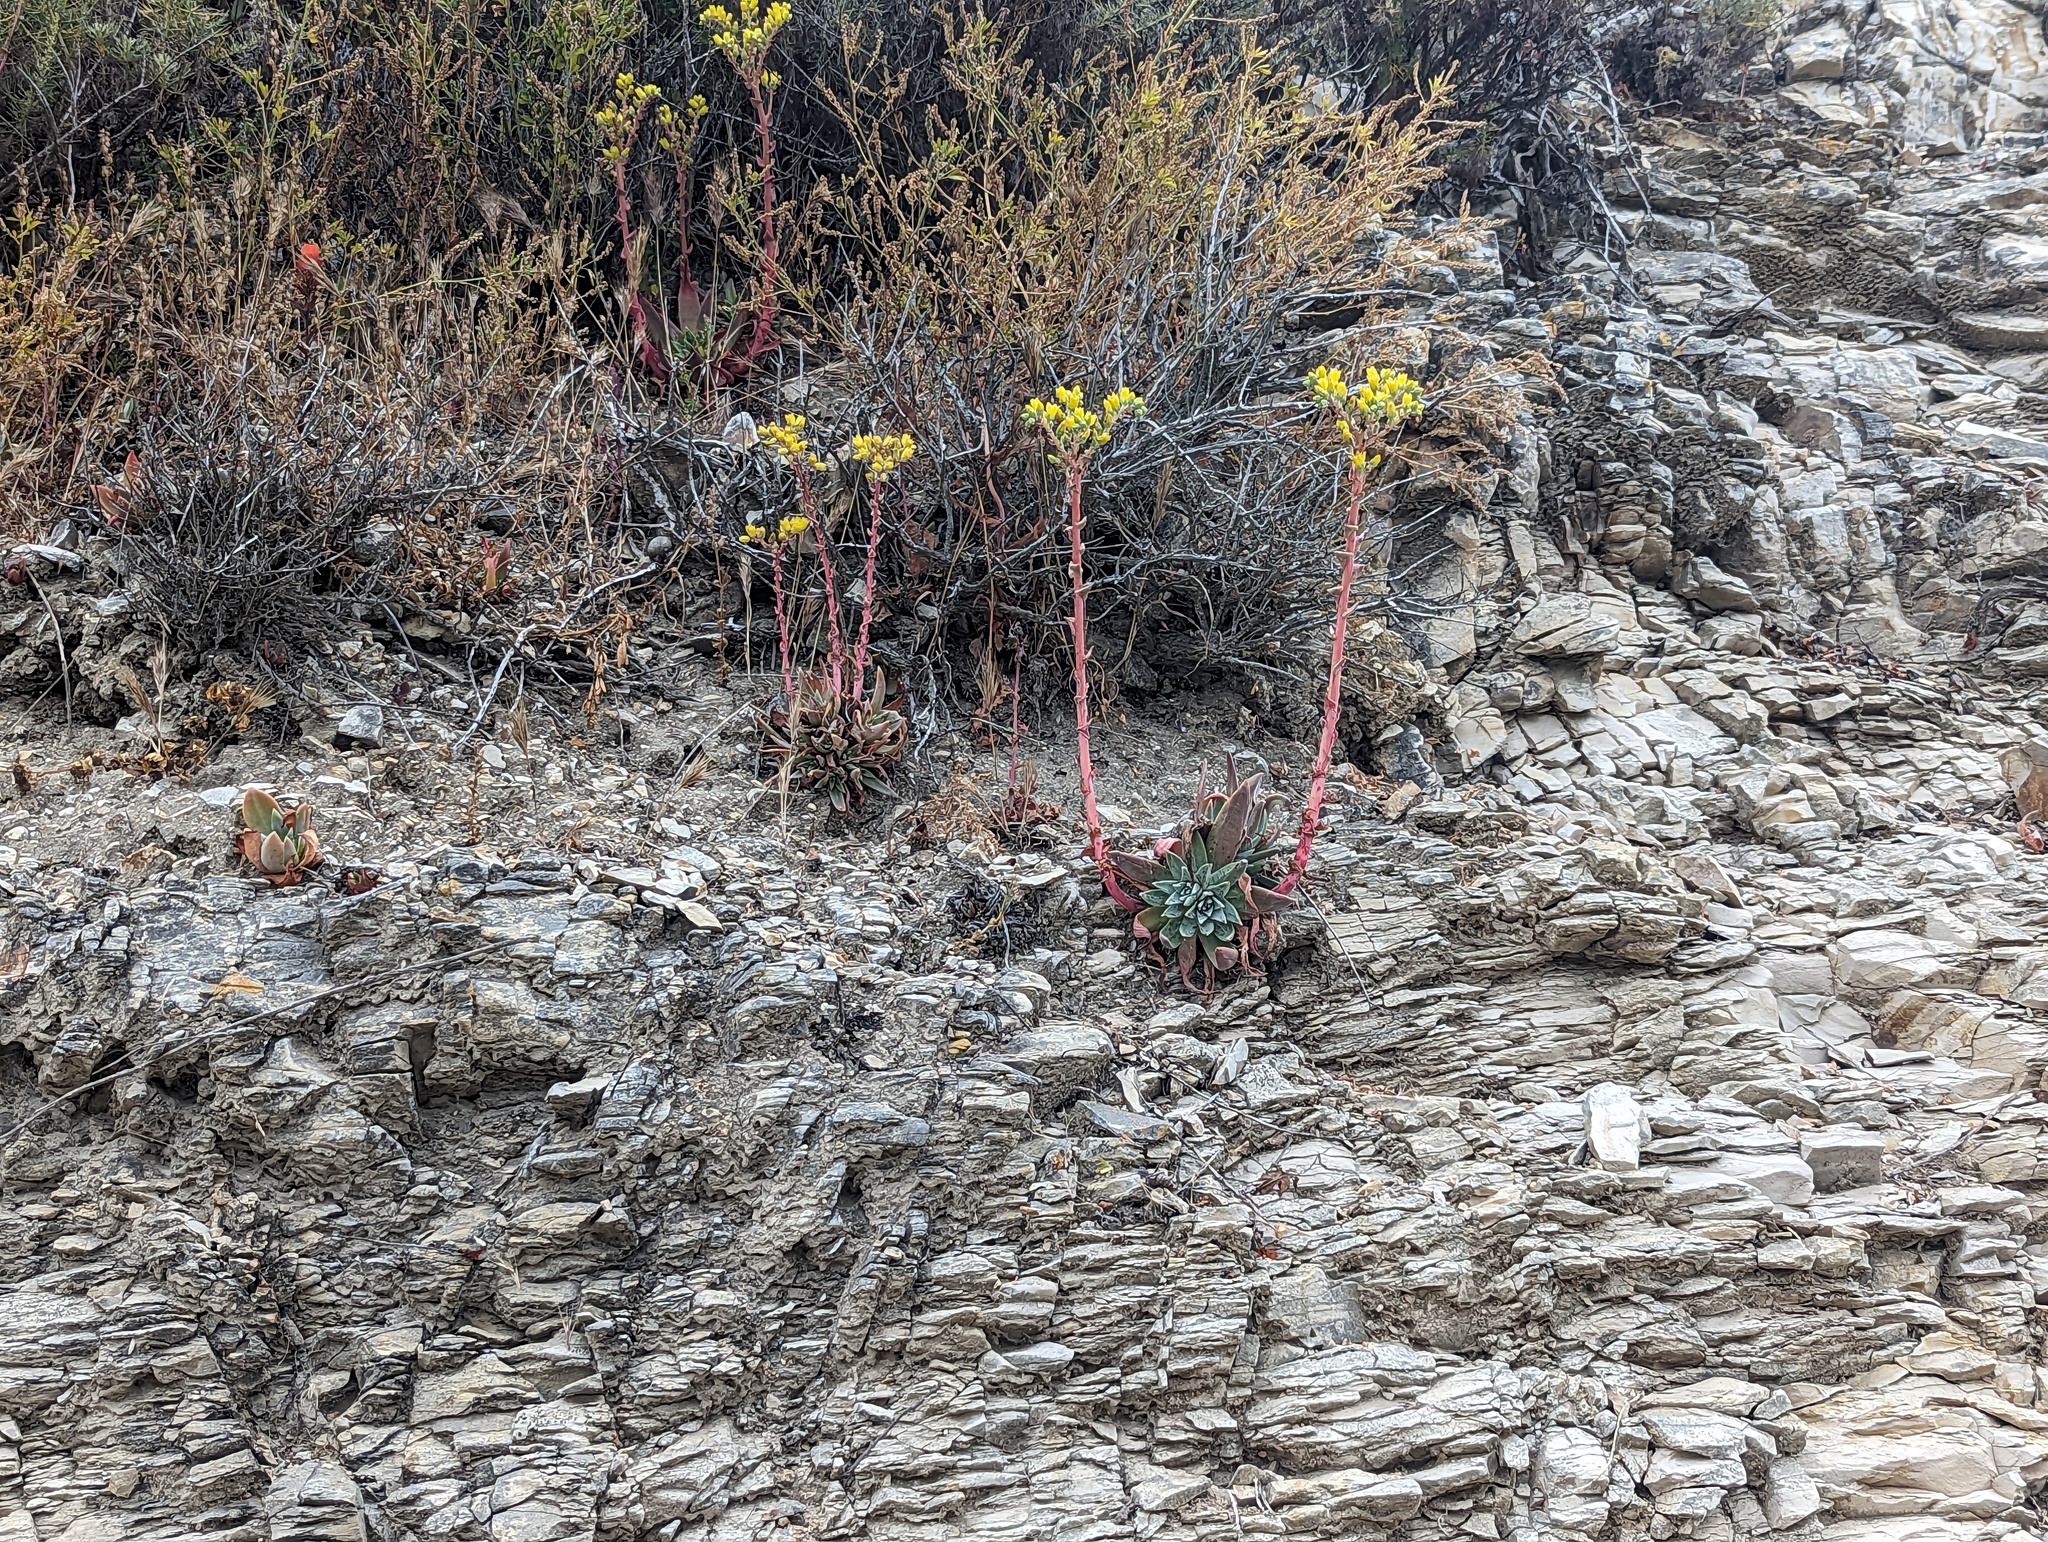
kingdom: Plantae
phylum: Tracheophyta
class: Magnoliopsida
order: Saxifragales
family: Crassulaceae
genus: Dudleya
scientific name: Dudleya caespitosa
